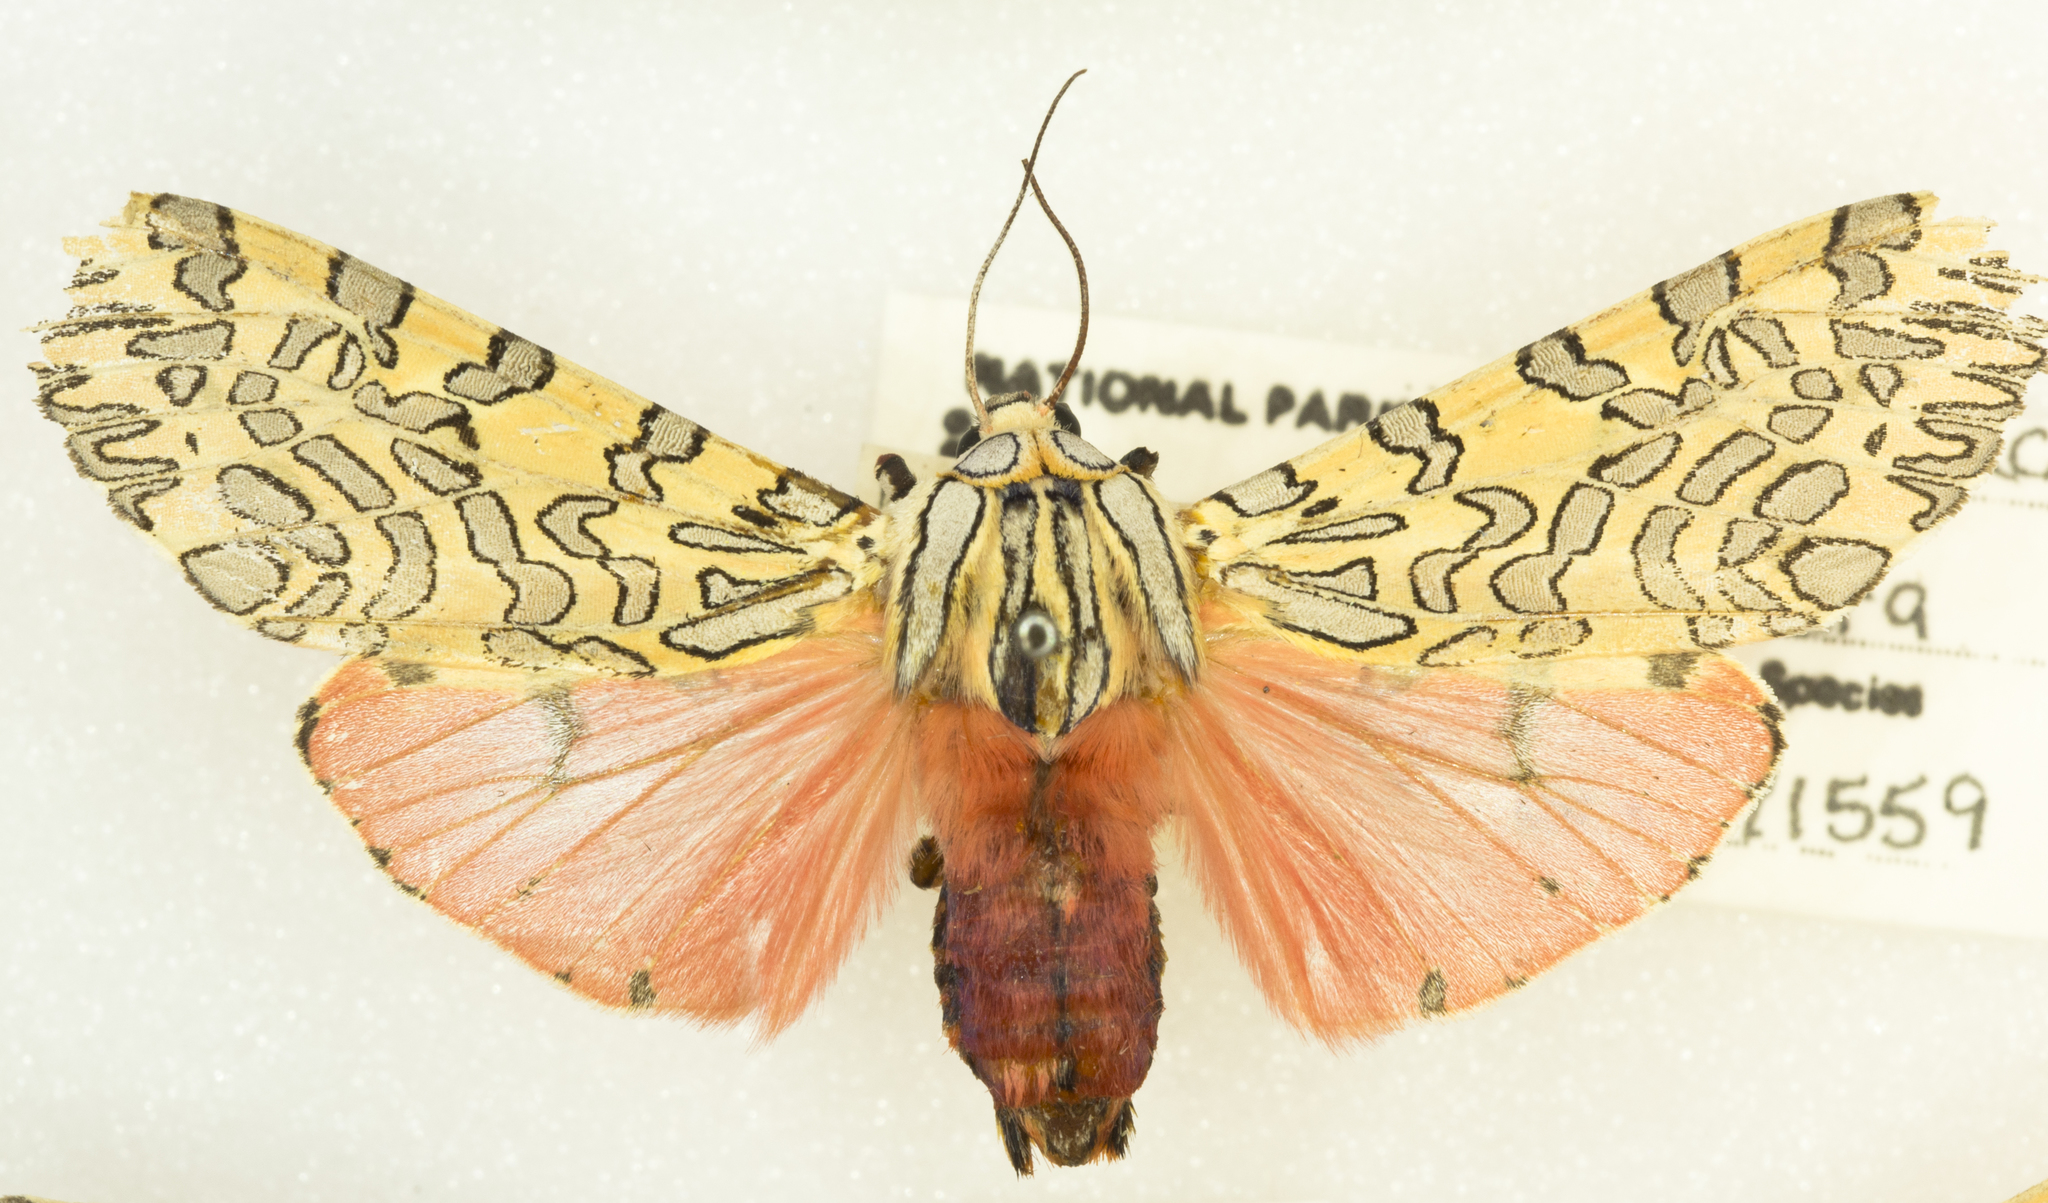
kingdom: Animalia
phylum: Arthropoda
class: Insecta
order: Lepidoptera
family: Erebidae
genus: Arachnis
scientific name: Arachnis citra
